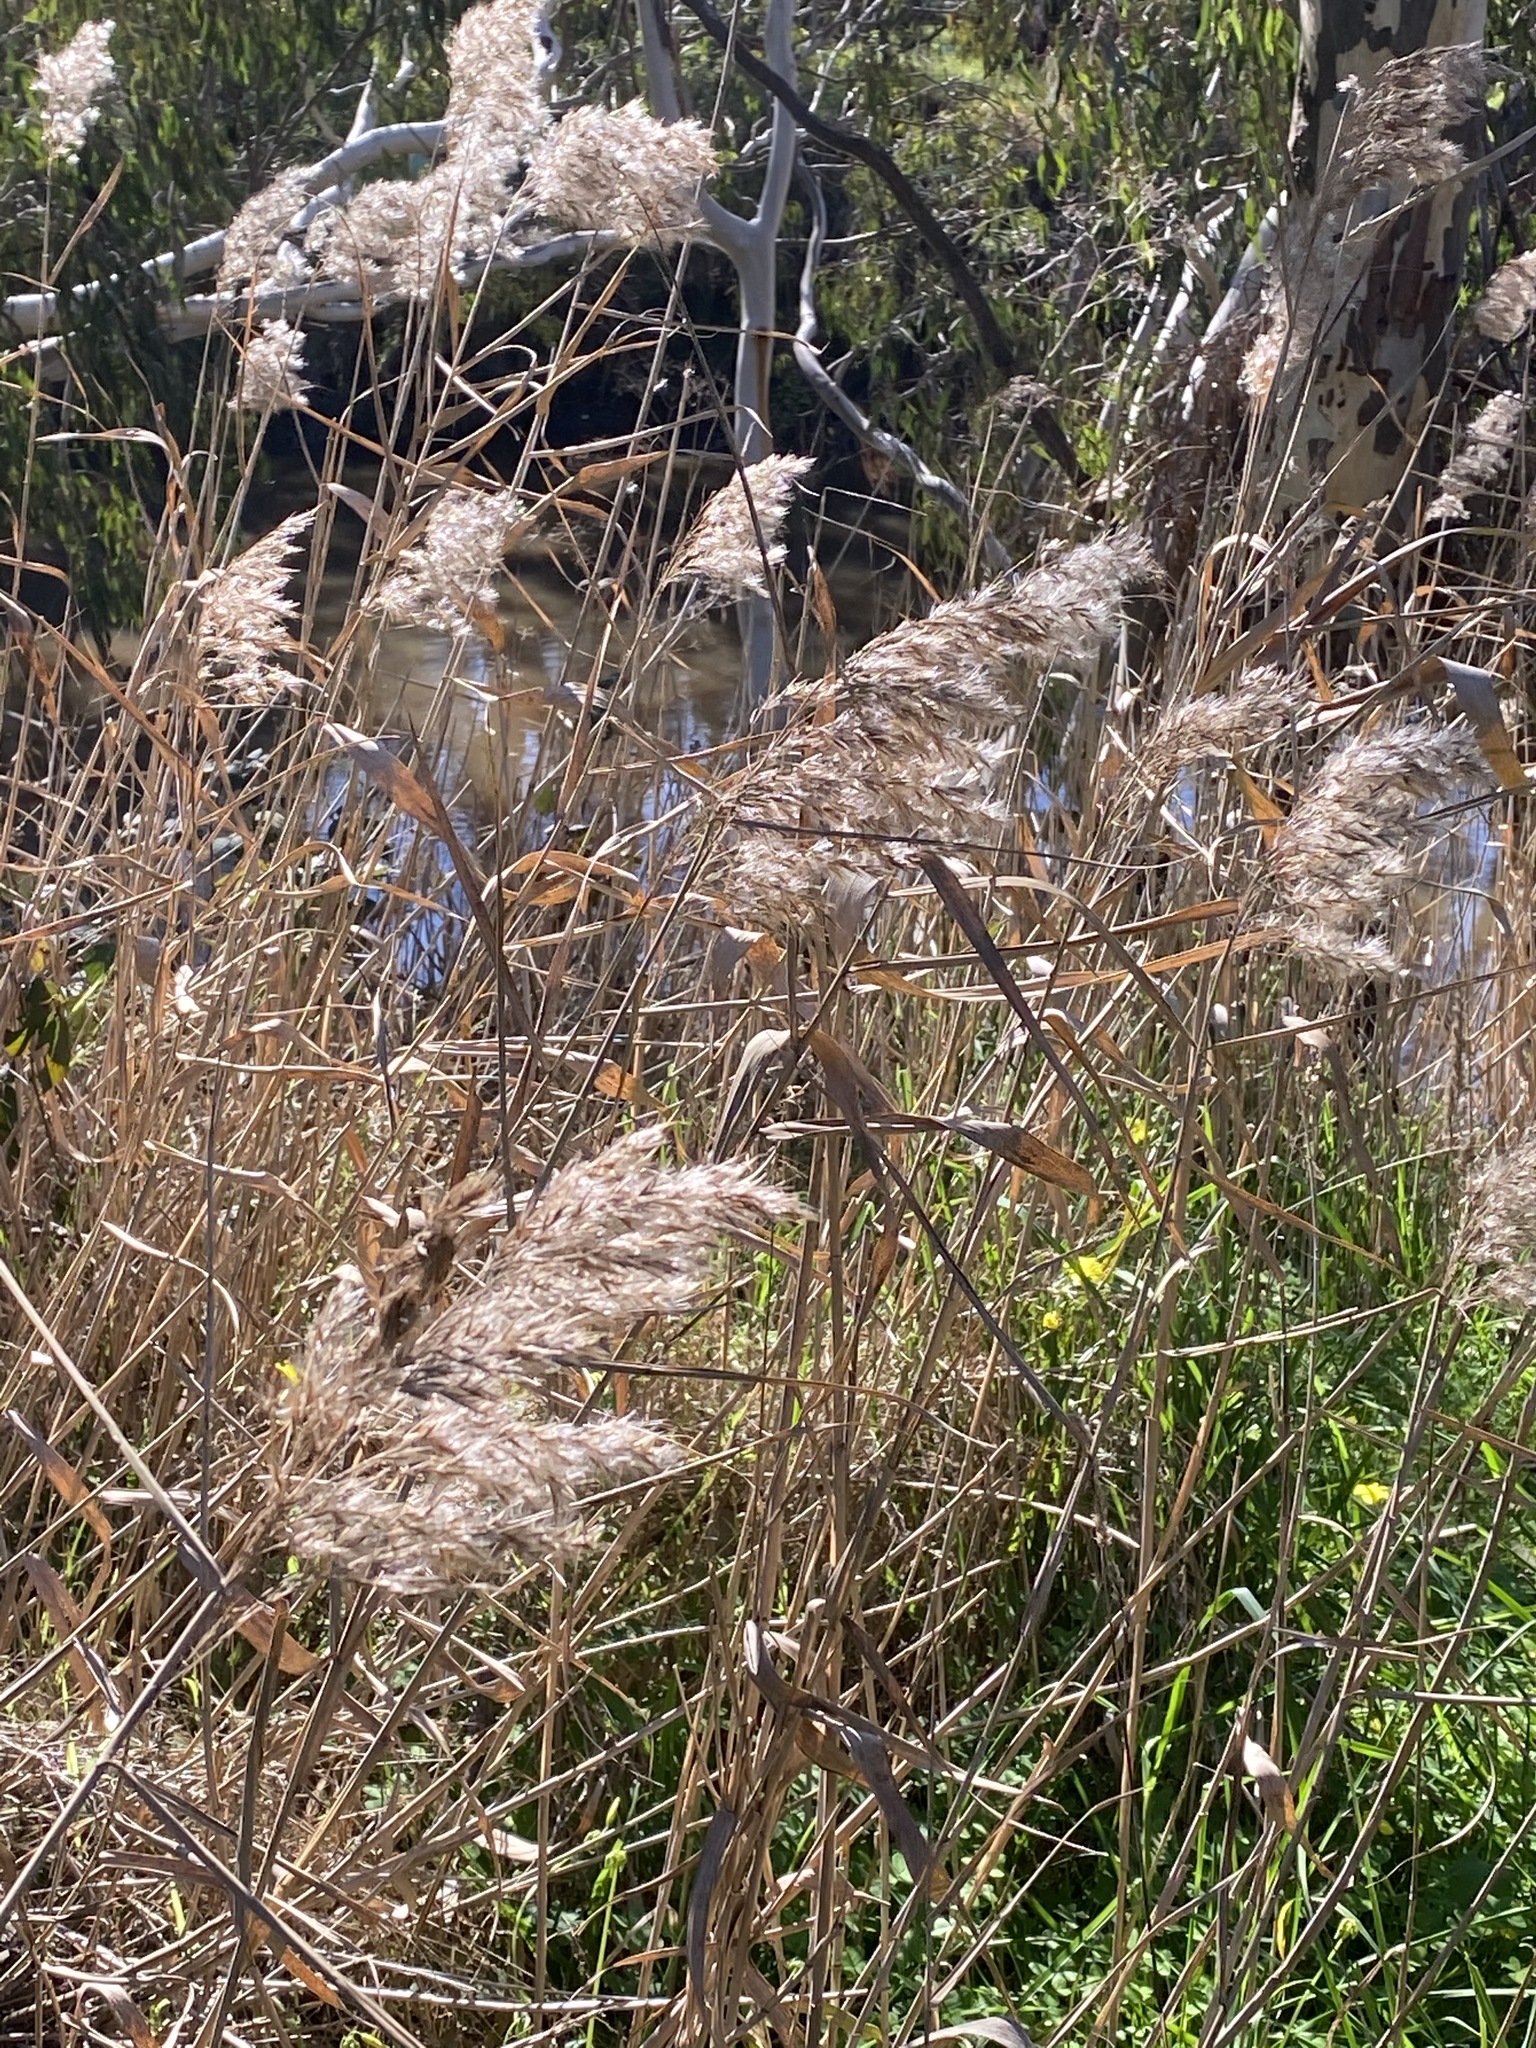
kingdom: Plantae
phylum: Tracheophyta
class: Liliopsida
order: Poales
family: Poaceae
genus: Phragmites
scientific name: Phragmites australis
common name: Common reed
